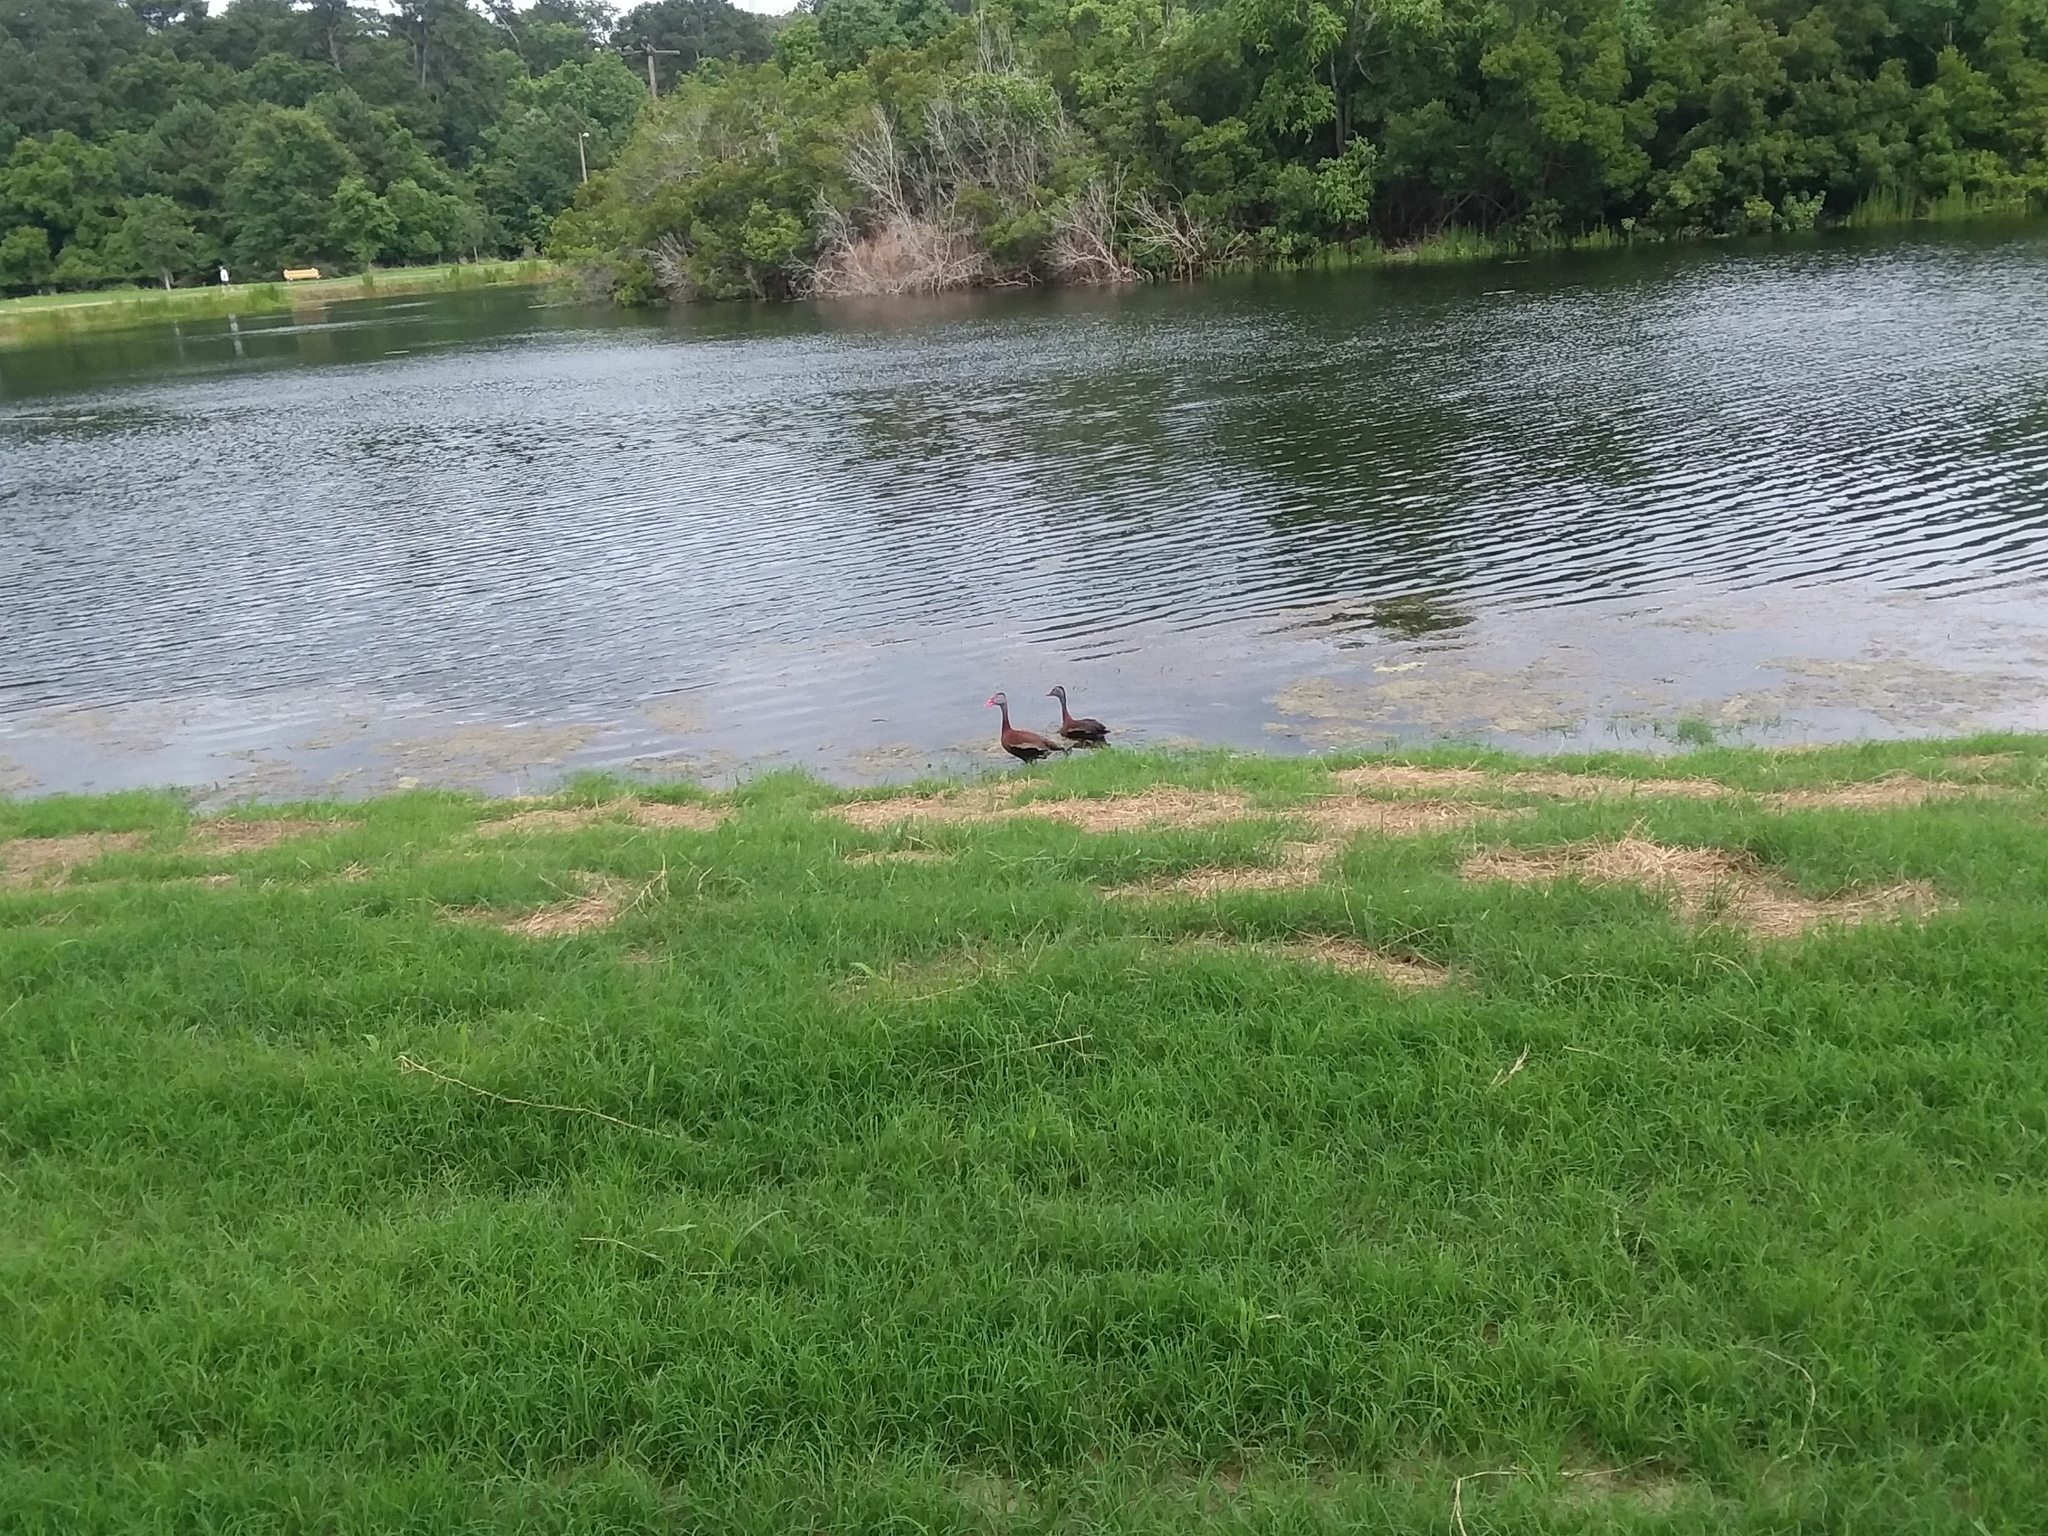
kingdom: Animalia
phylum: Chordata
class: Aves
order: Anseriformes
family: Anatidae
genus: Dendrocygna
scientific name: Dendrocygna autumnalis
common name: Black-bellied whistling duck
